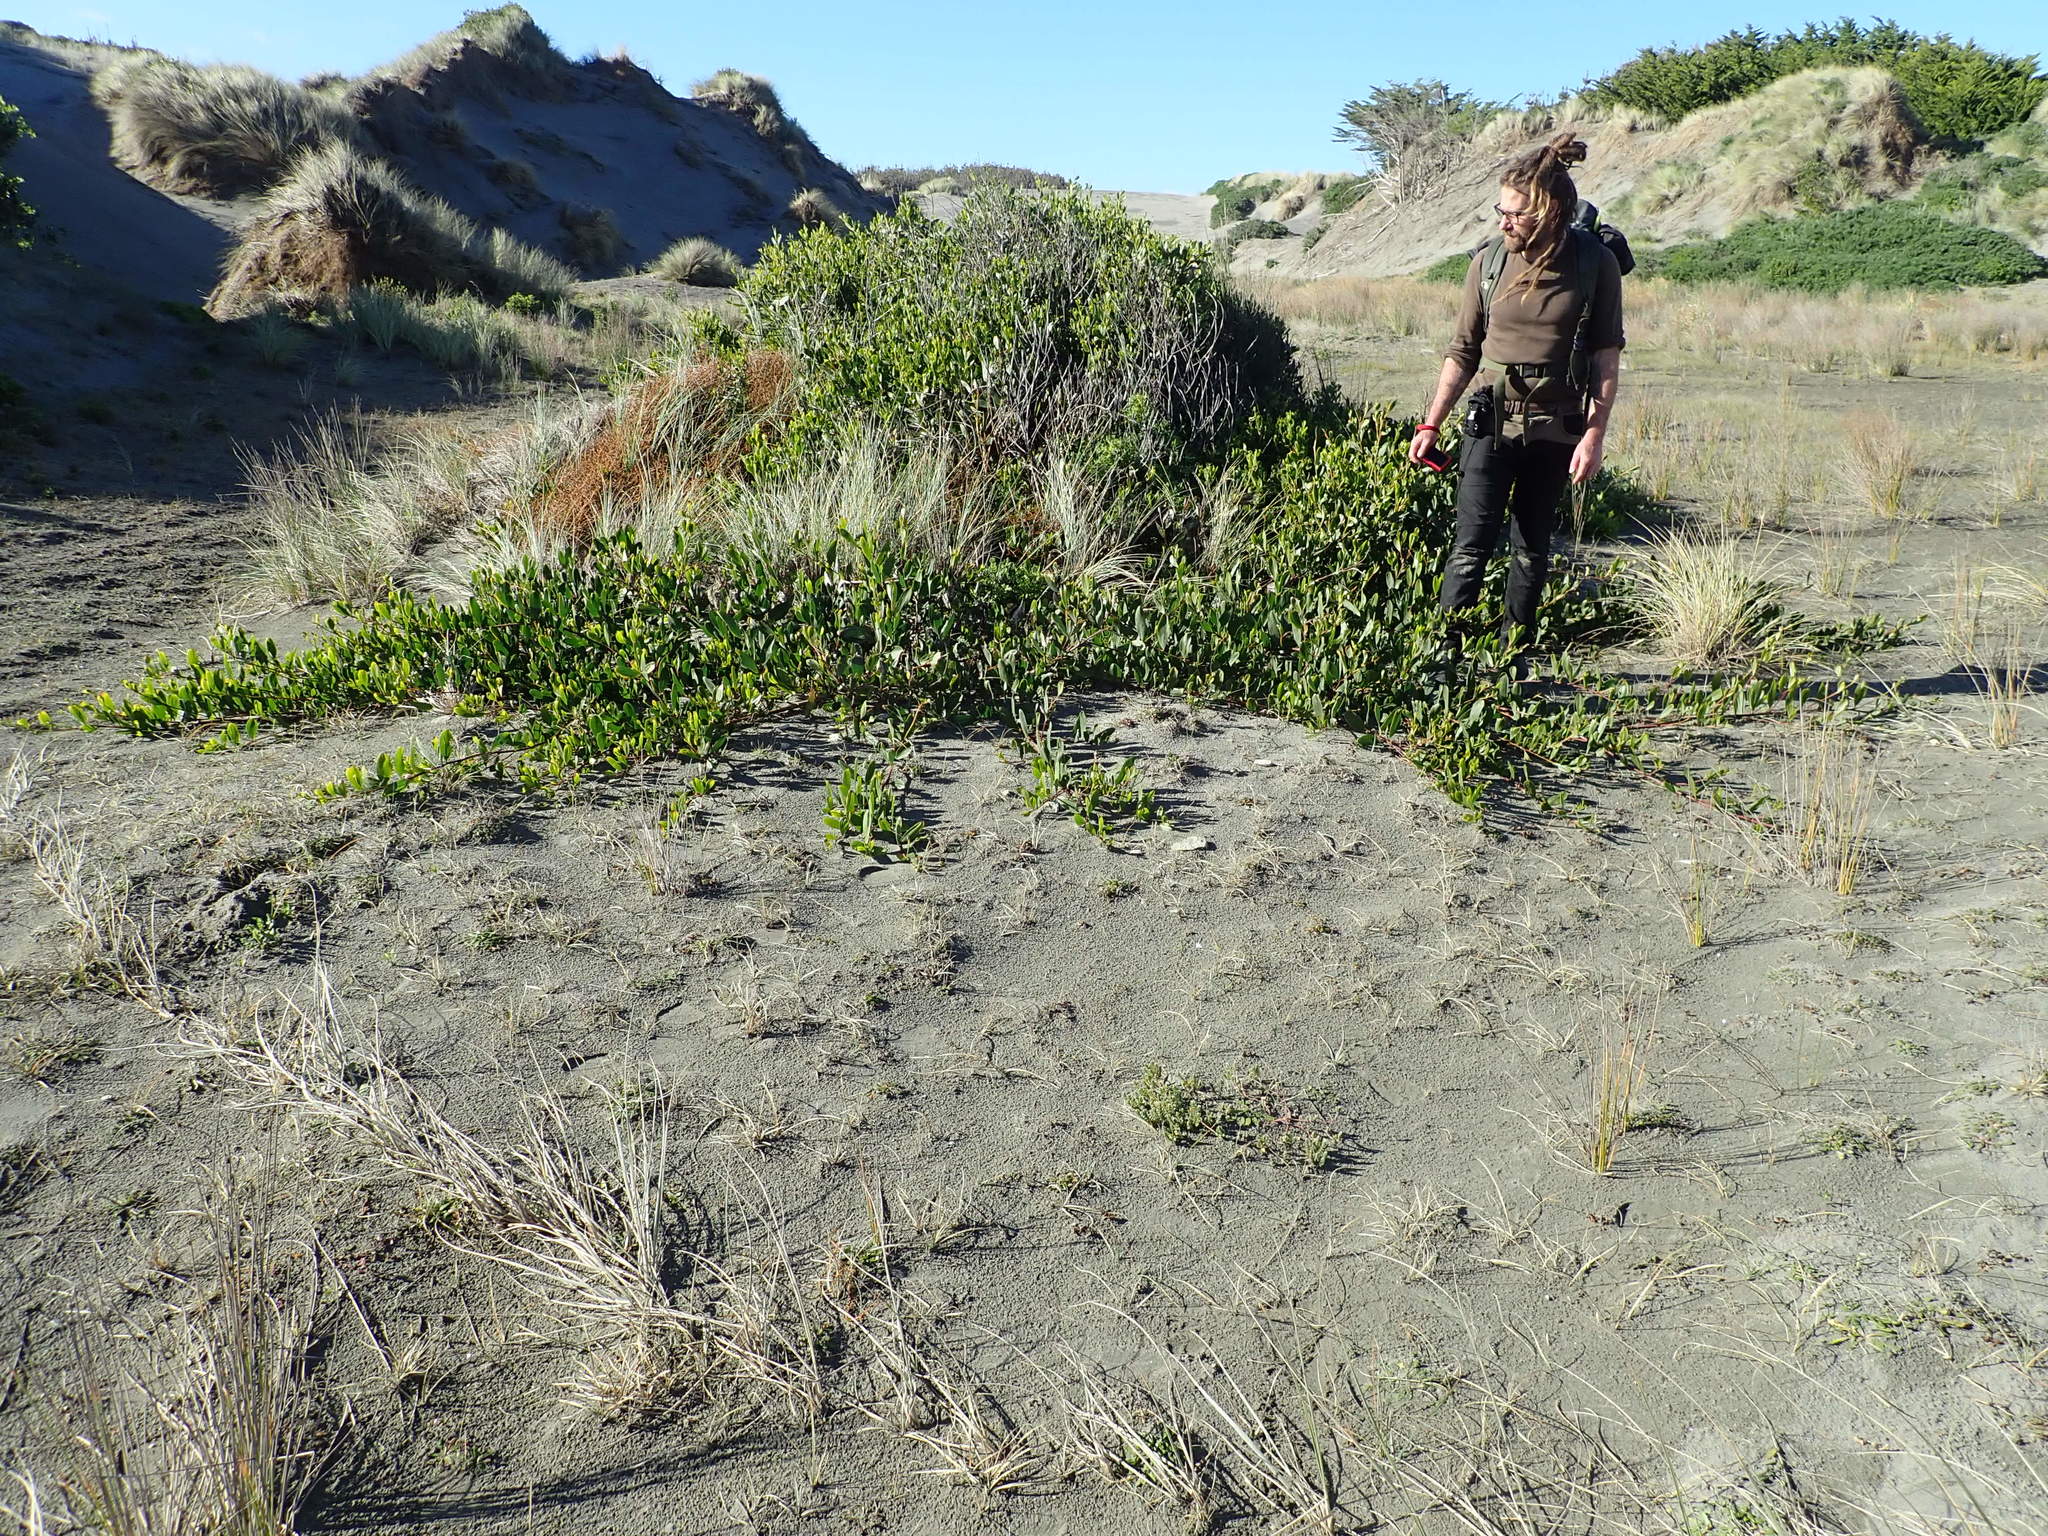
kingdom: Plantae
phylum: Tracheophyta
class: Magnoliopsida
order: Fabales
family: Fabaceae
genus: Acacia
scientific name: Acacia longifolia
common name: Sydney golden wattle
